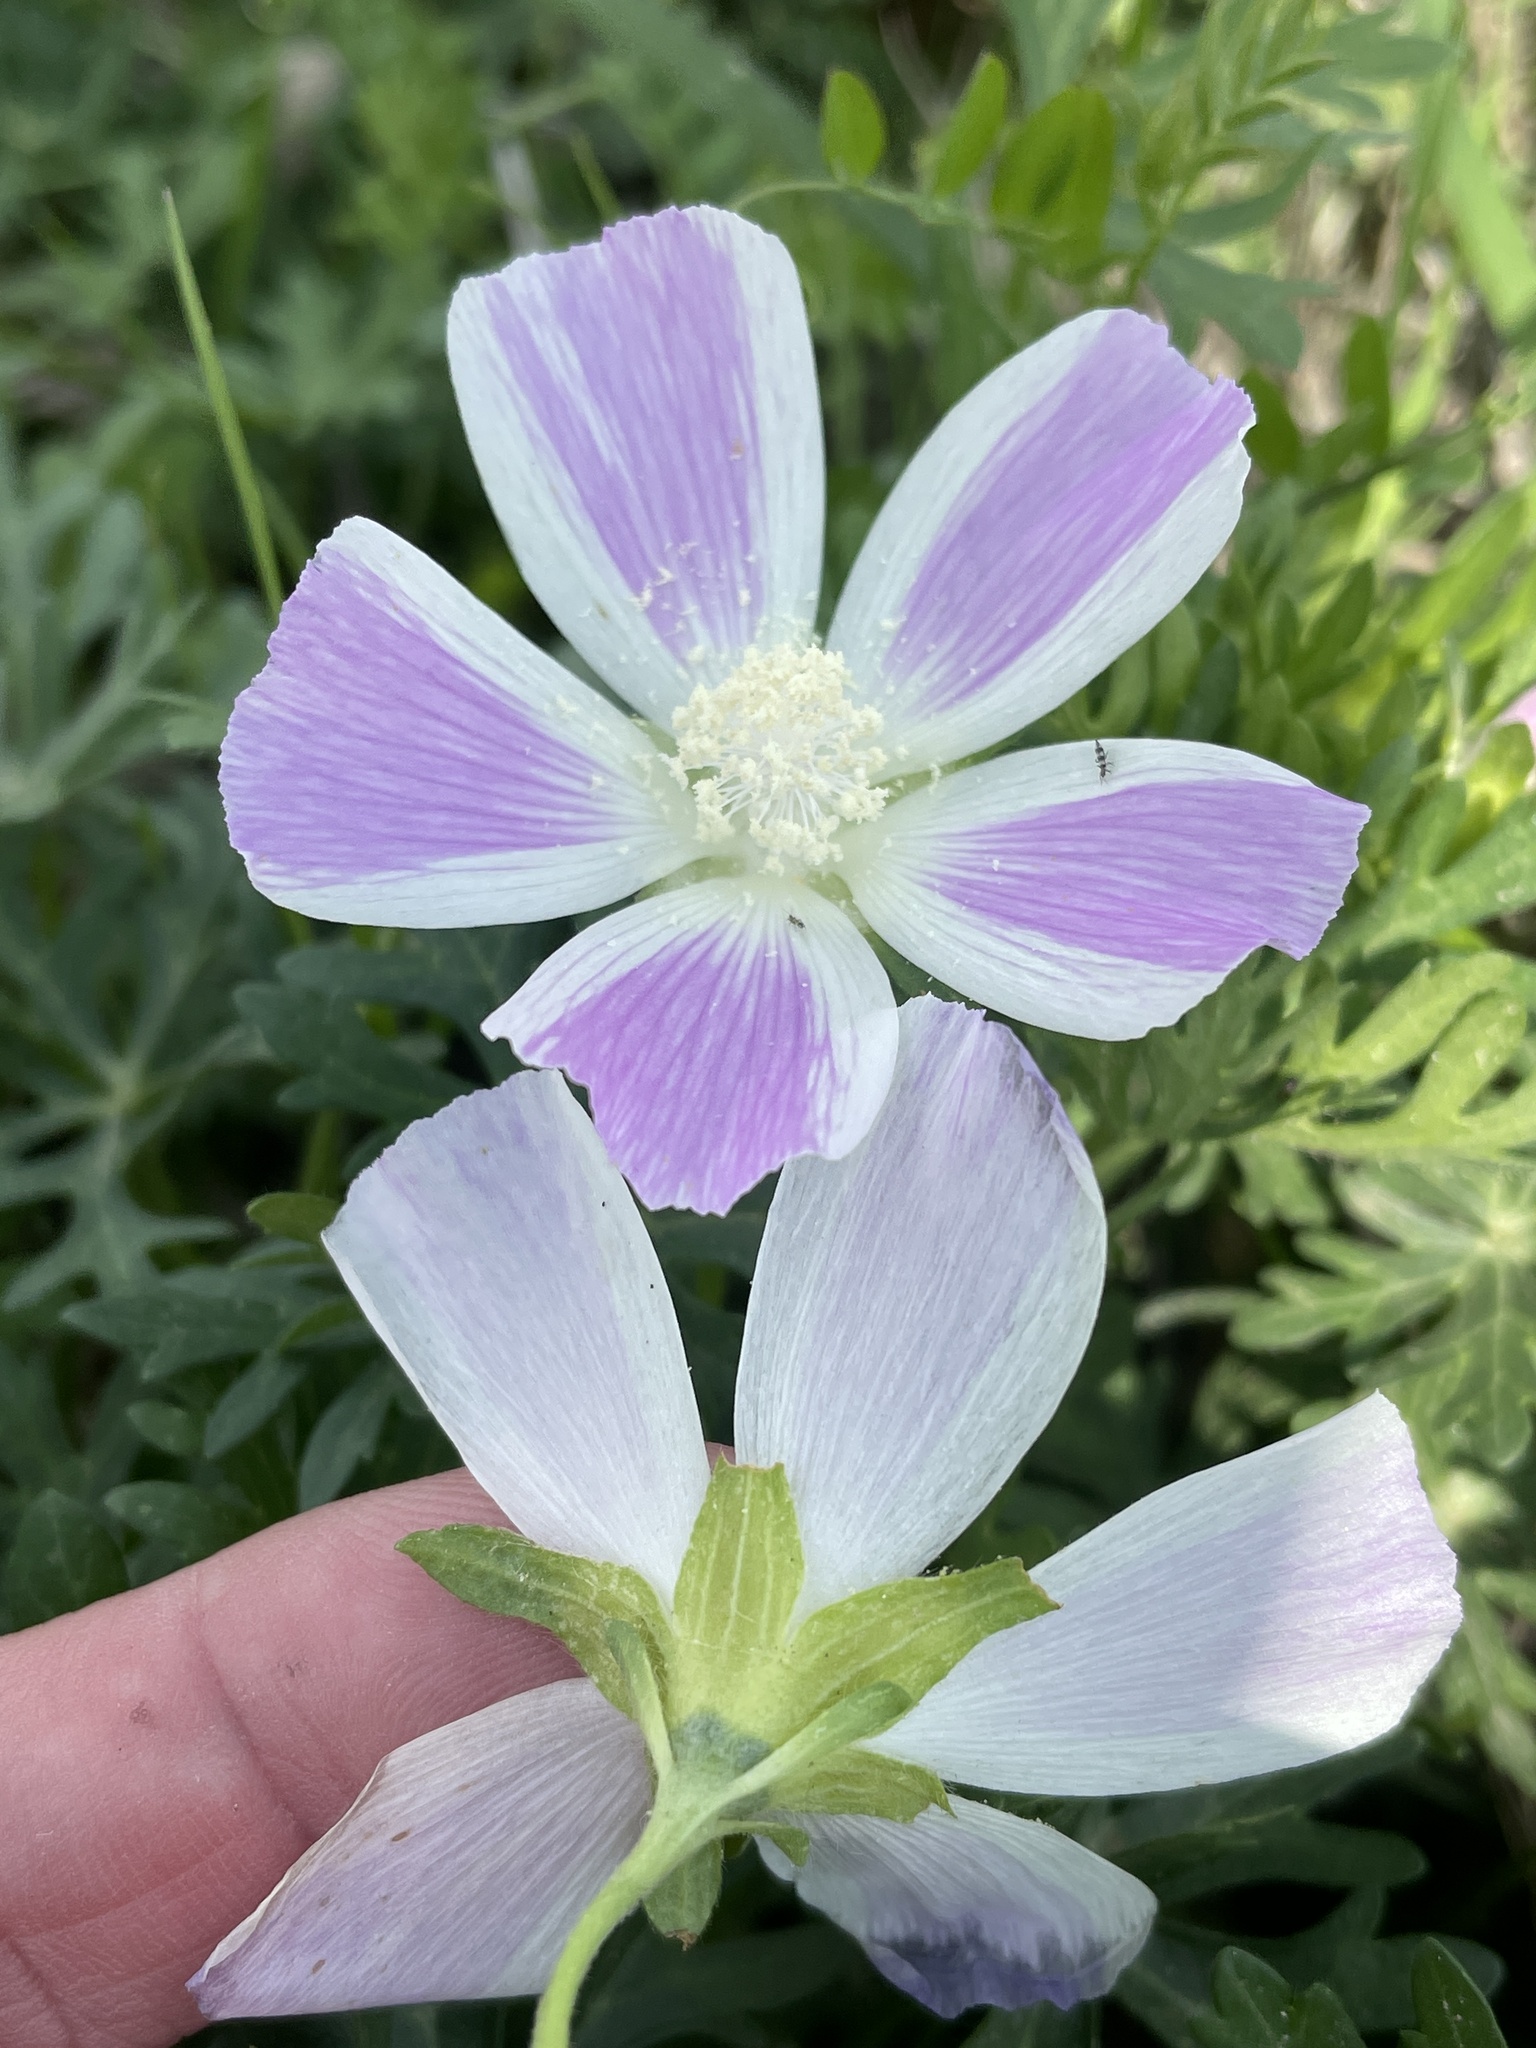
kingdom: Plantae
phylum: Tracheophyta
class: Magnoliopsida
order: Malvales
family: Malvaceae
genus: Callirhoe
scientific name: Callirhoe involucrata
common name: Purple poppy-mallow
